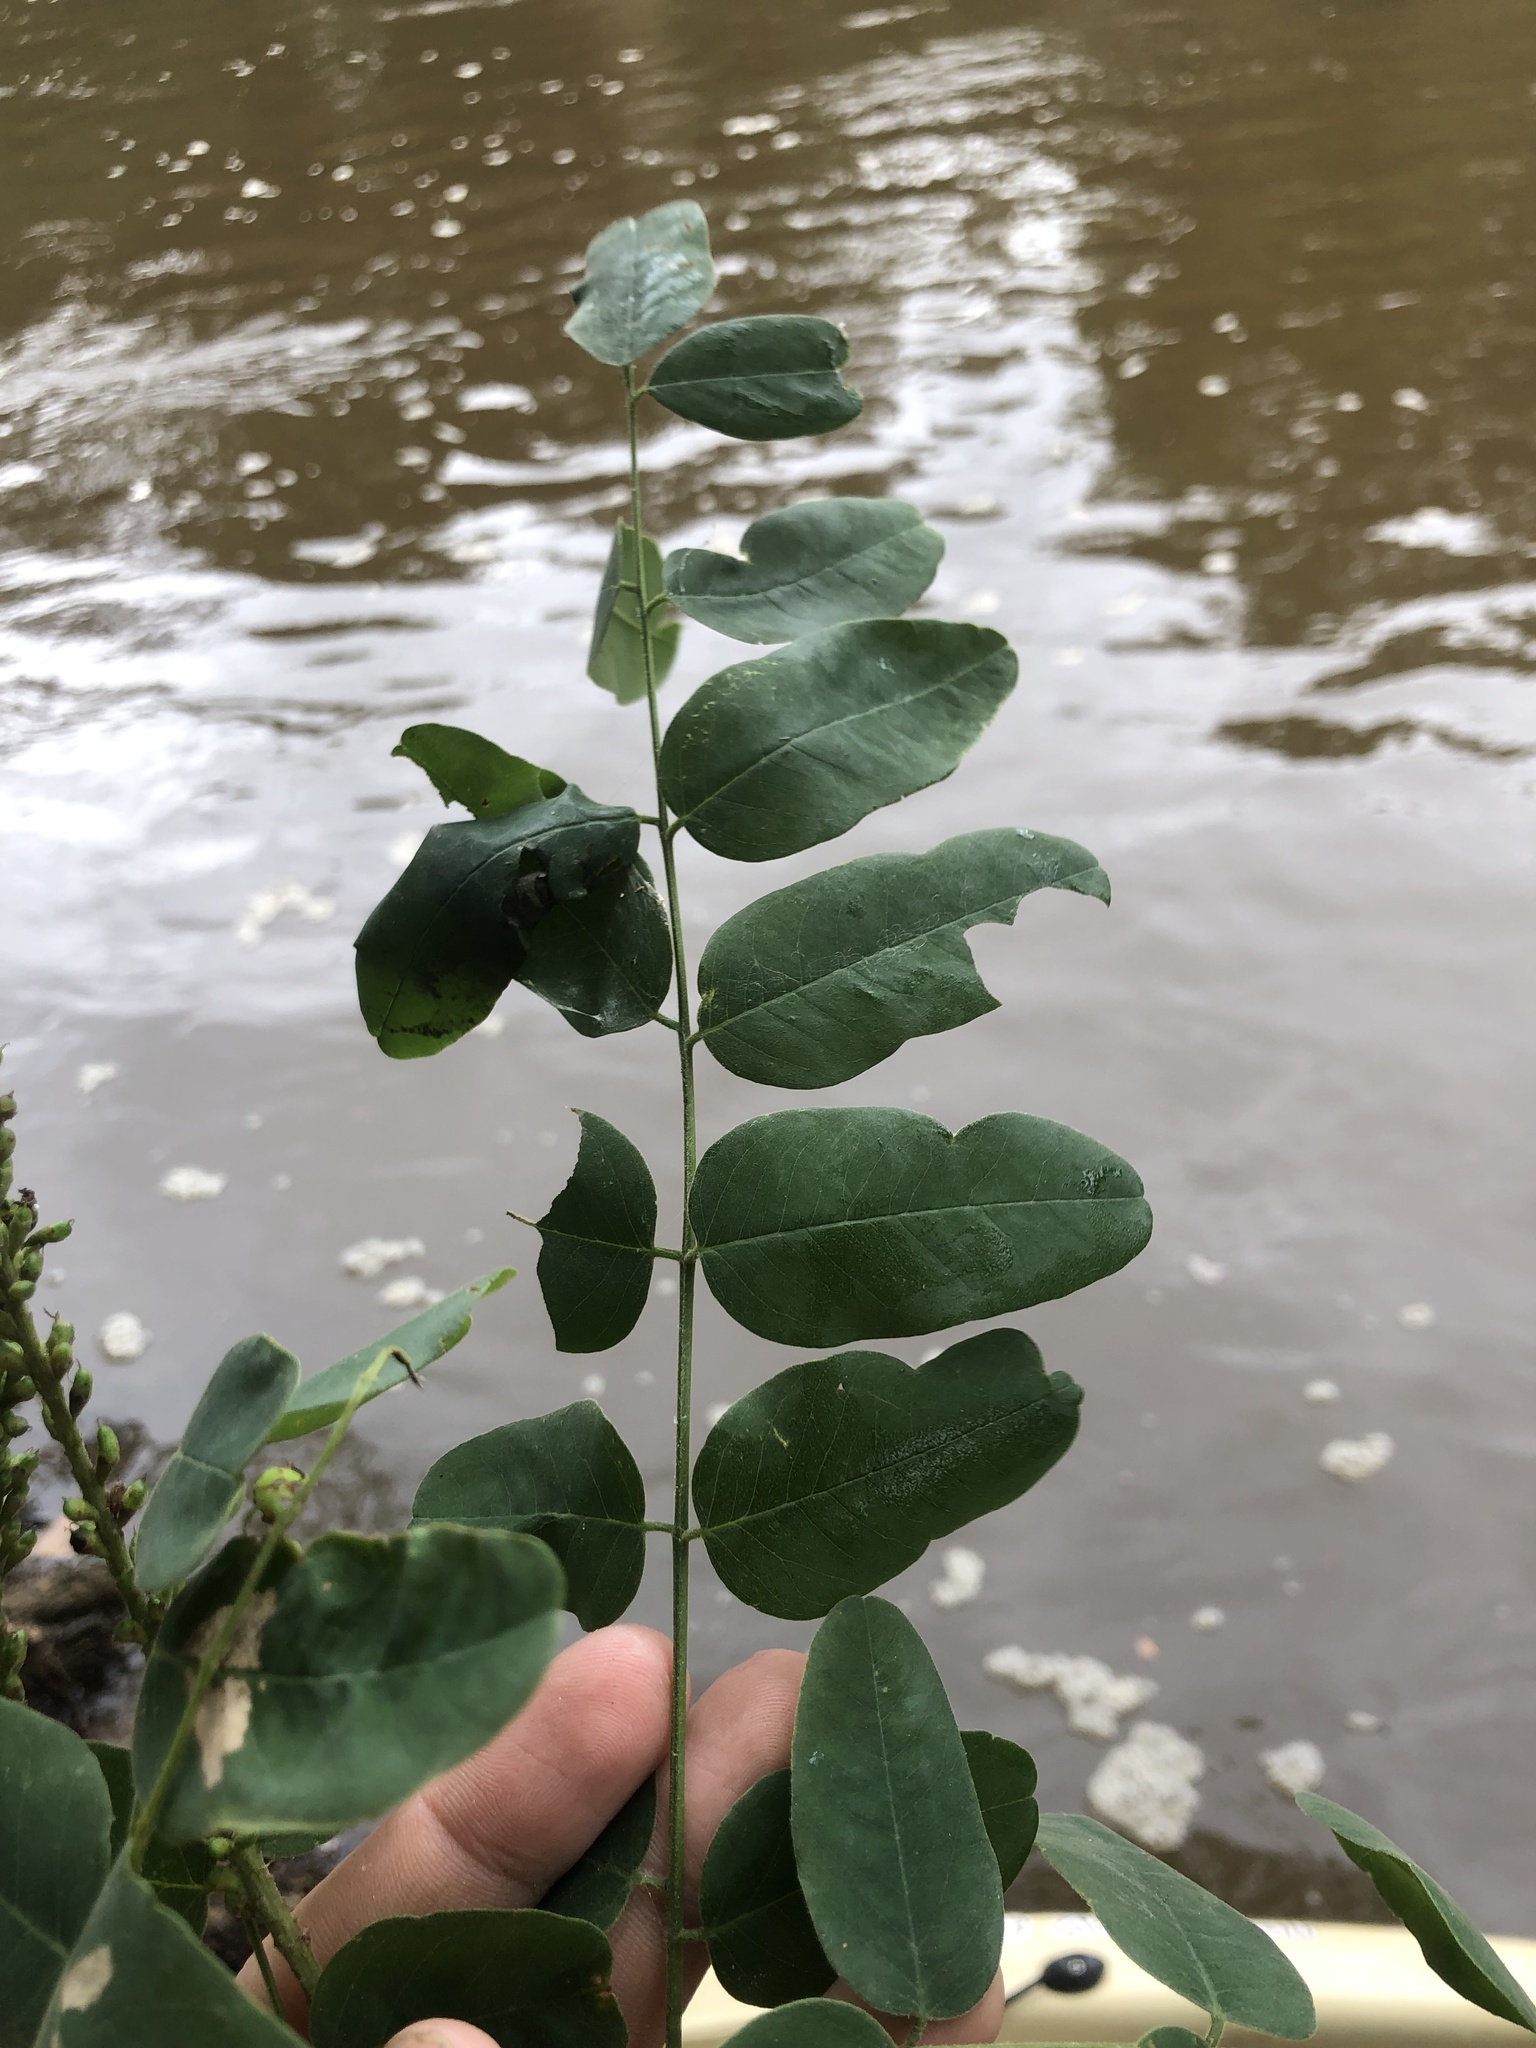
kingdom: Plantae
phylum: Tracheophyta
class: Magnoliopsida
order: Fabales
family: Fabaceae
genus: Amorpha
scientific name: Amorpha fruticosa
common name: False indigo
